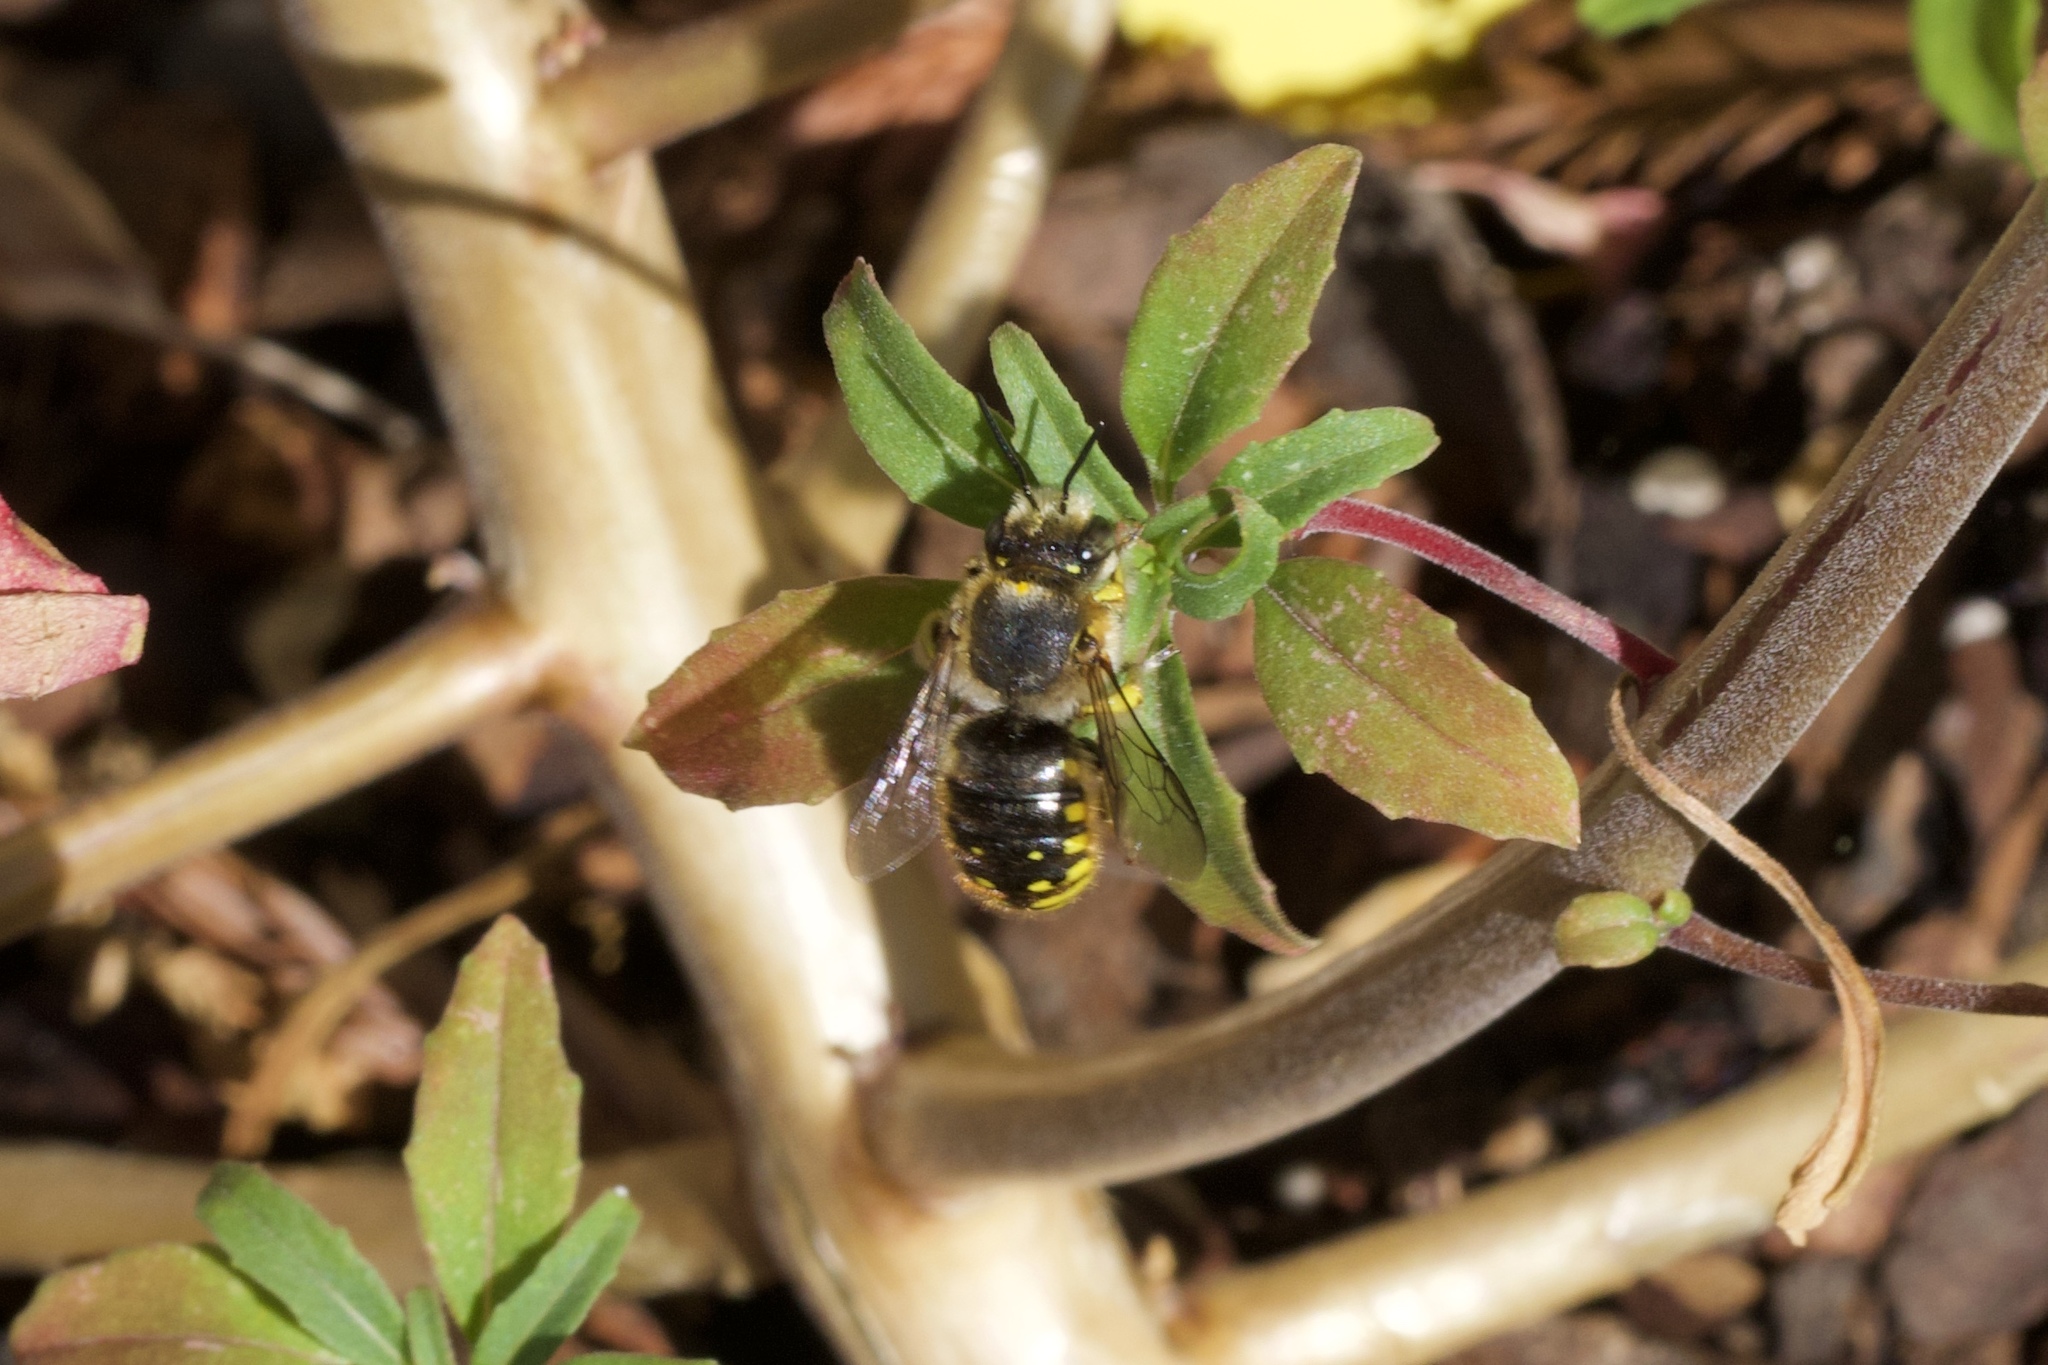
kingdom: Animalia
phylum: Arthropoda
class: Insecta
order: Hymenoptera
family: Megachilidae
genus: Anthidium
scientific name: Anthidium manicatum
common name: Wool carder bee
